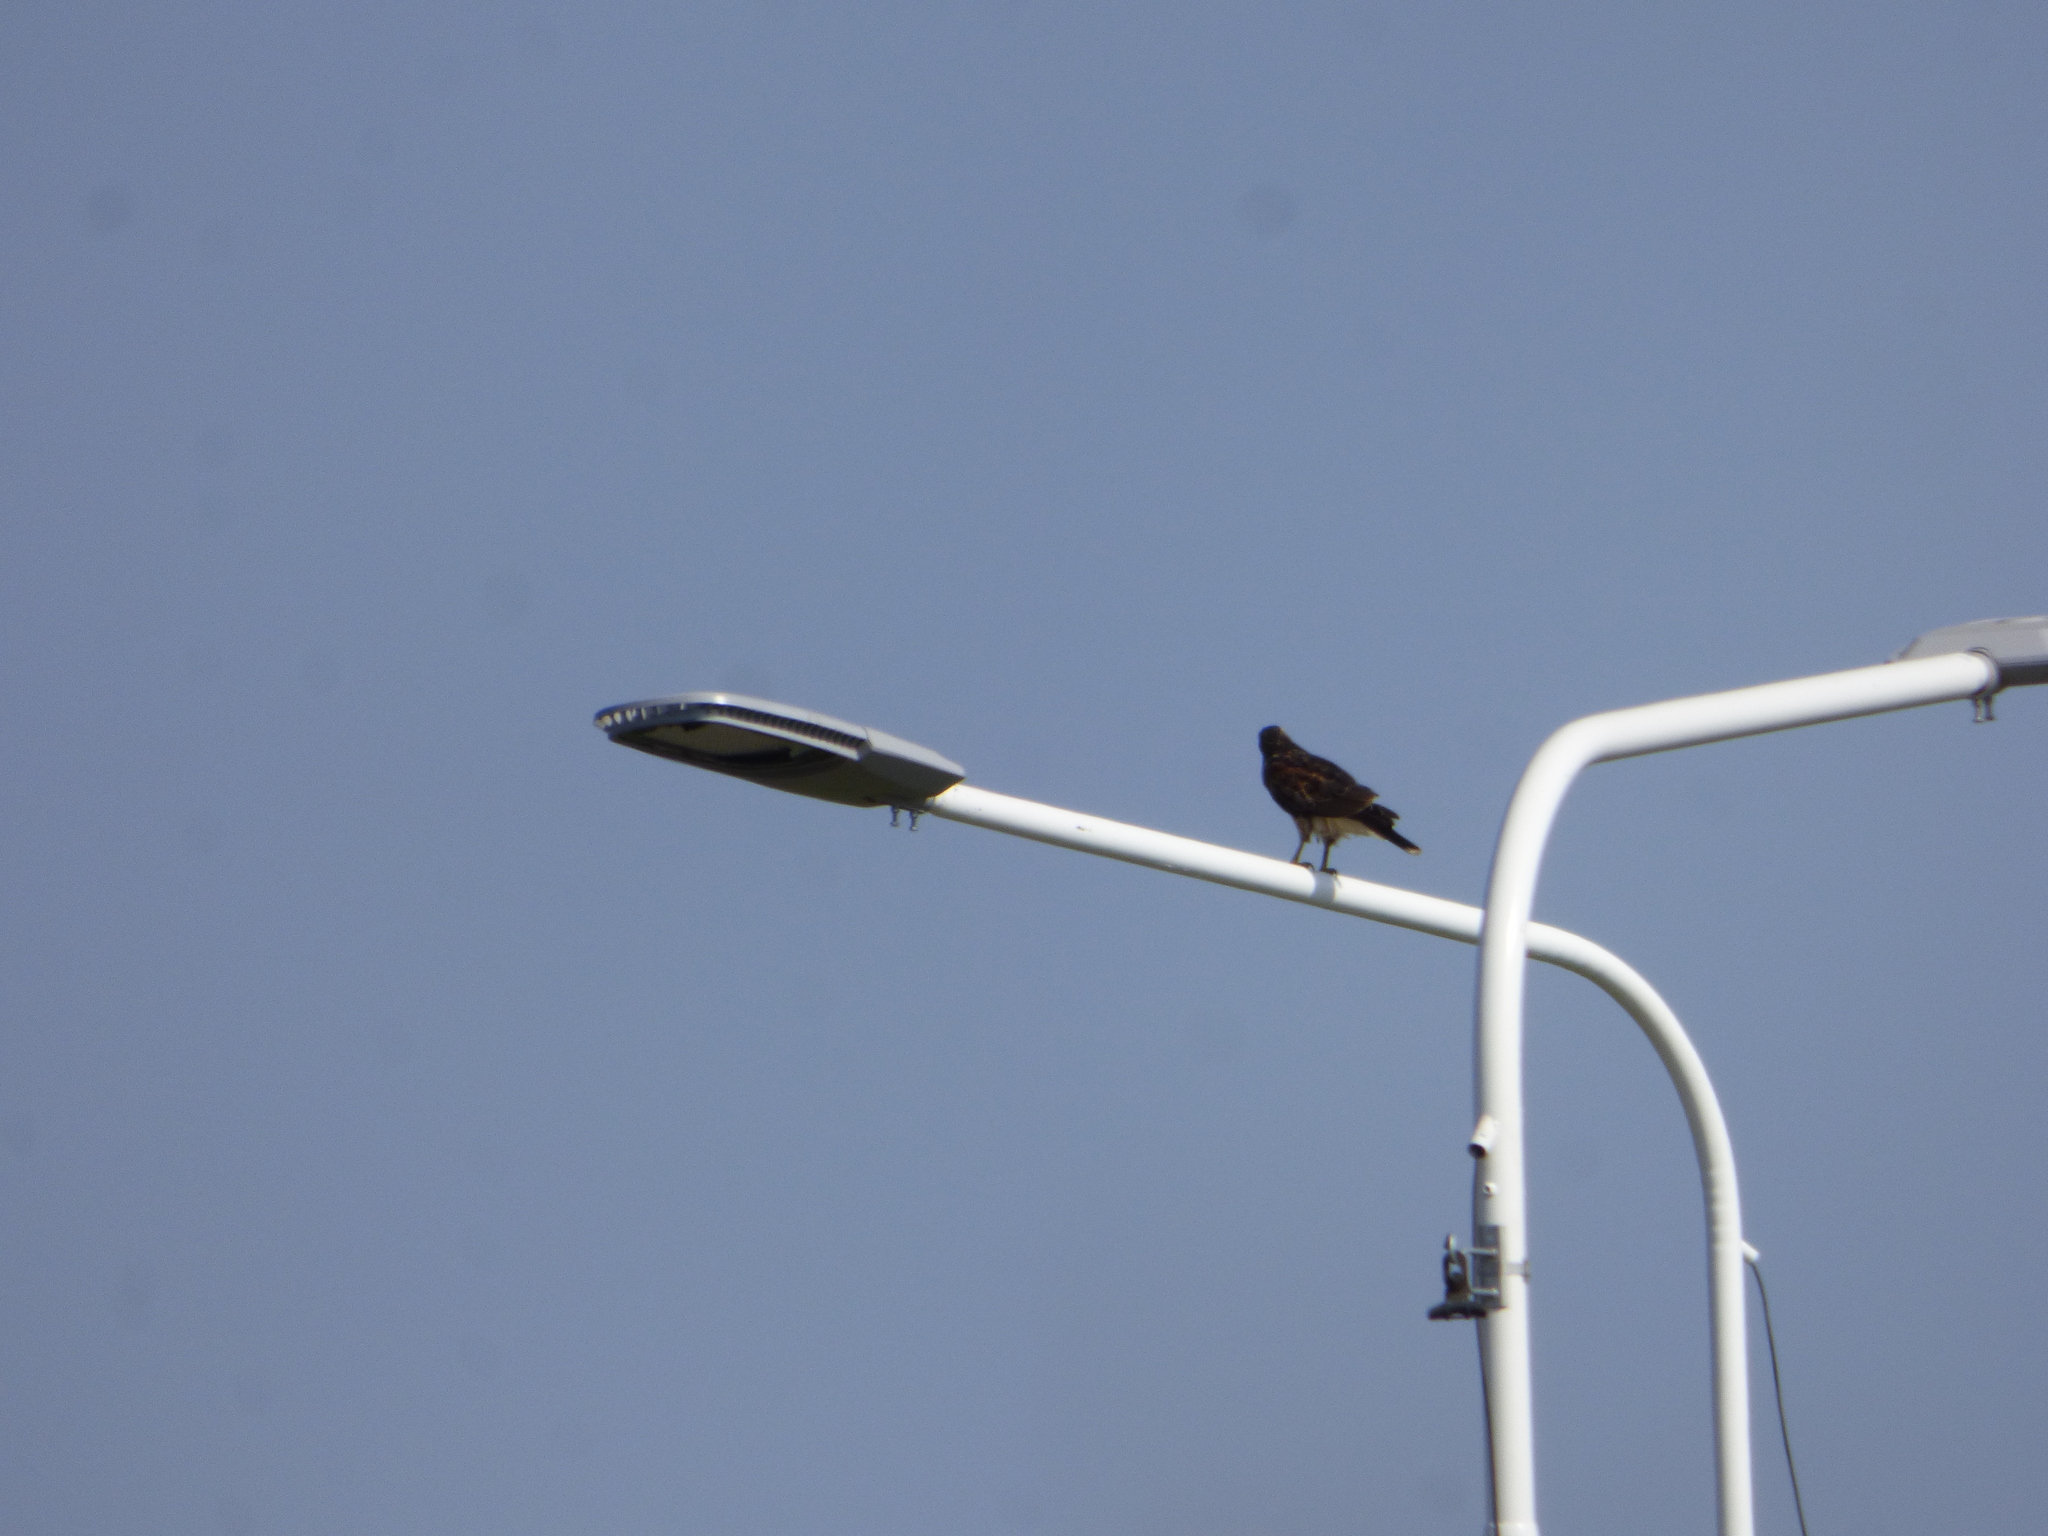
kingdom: Animalia
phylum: Chordata
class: Aves
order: Accipitriformes
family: Accipitridae
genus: Parabuteo
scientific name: Parabuteo unicinctus
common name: Harris's hawk
